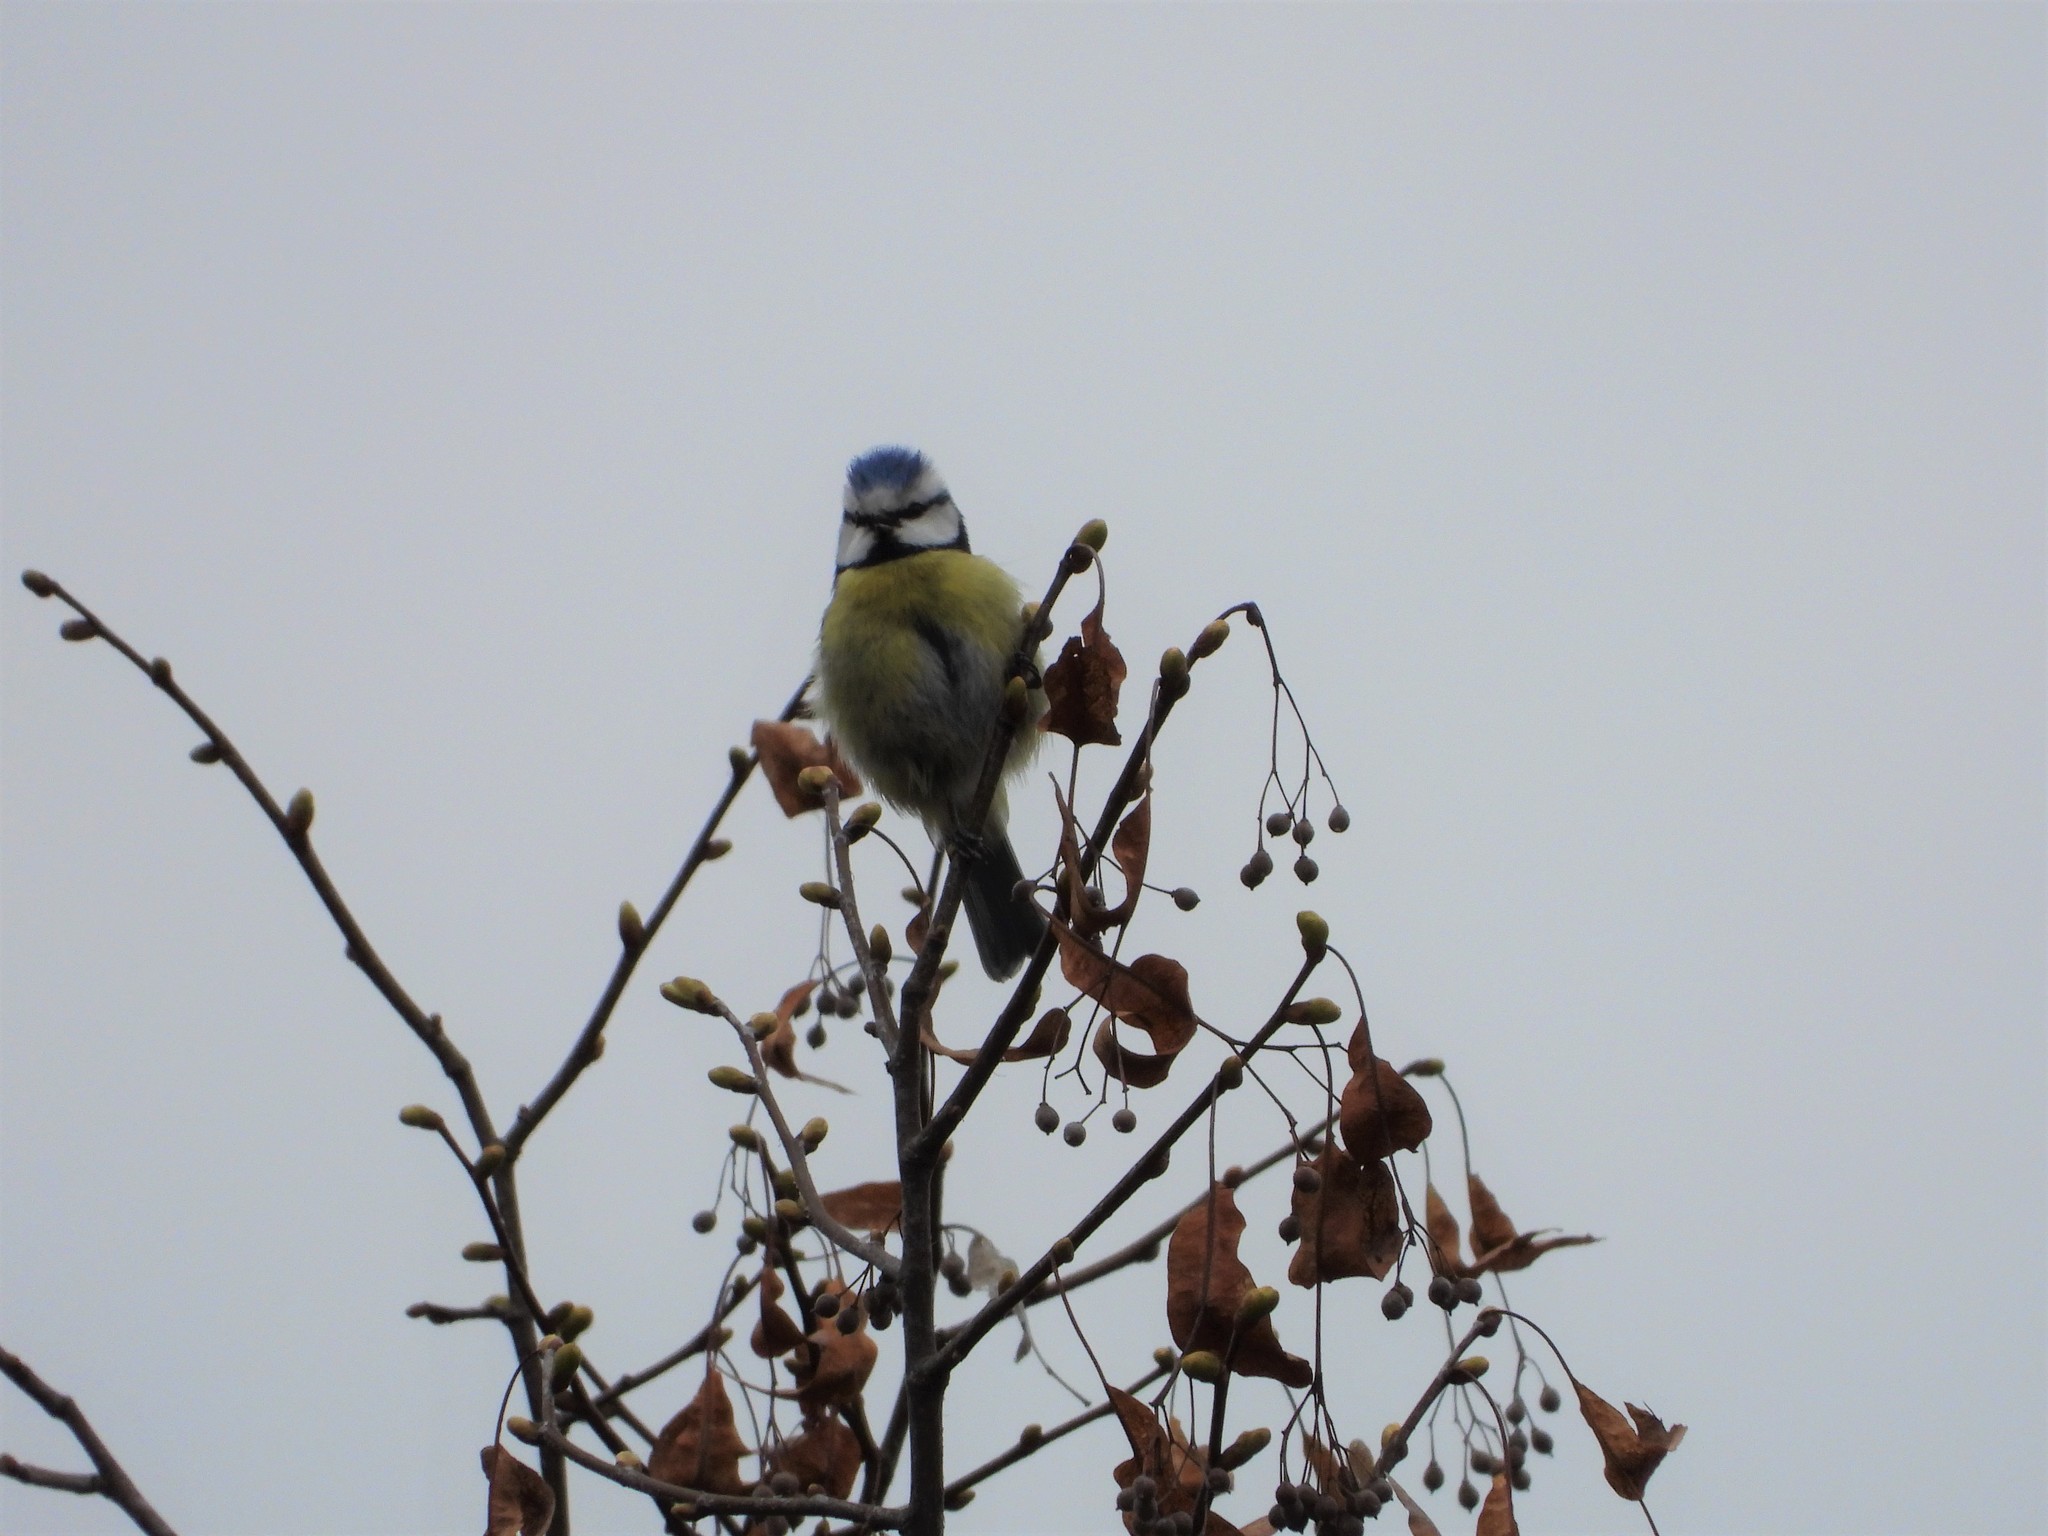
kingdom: Animalia
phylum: Chordata
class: Aves
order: Passeriformes
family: Paridae
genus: Cyanistes
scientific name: Cyanistes caeruleus
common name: Eurasian blue tit
